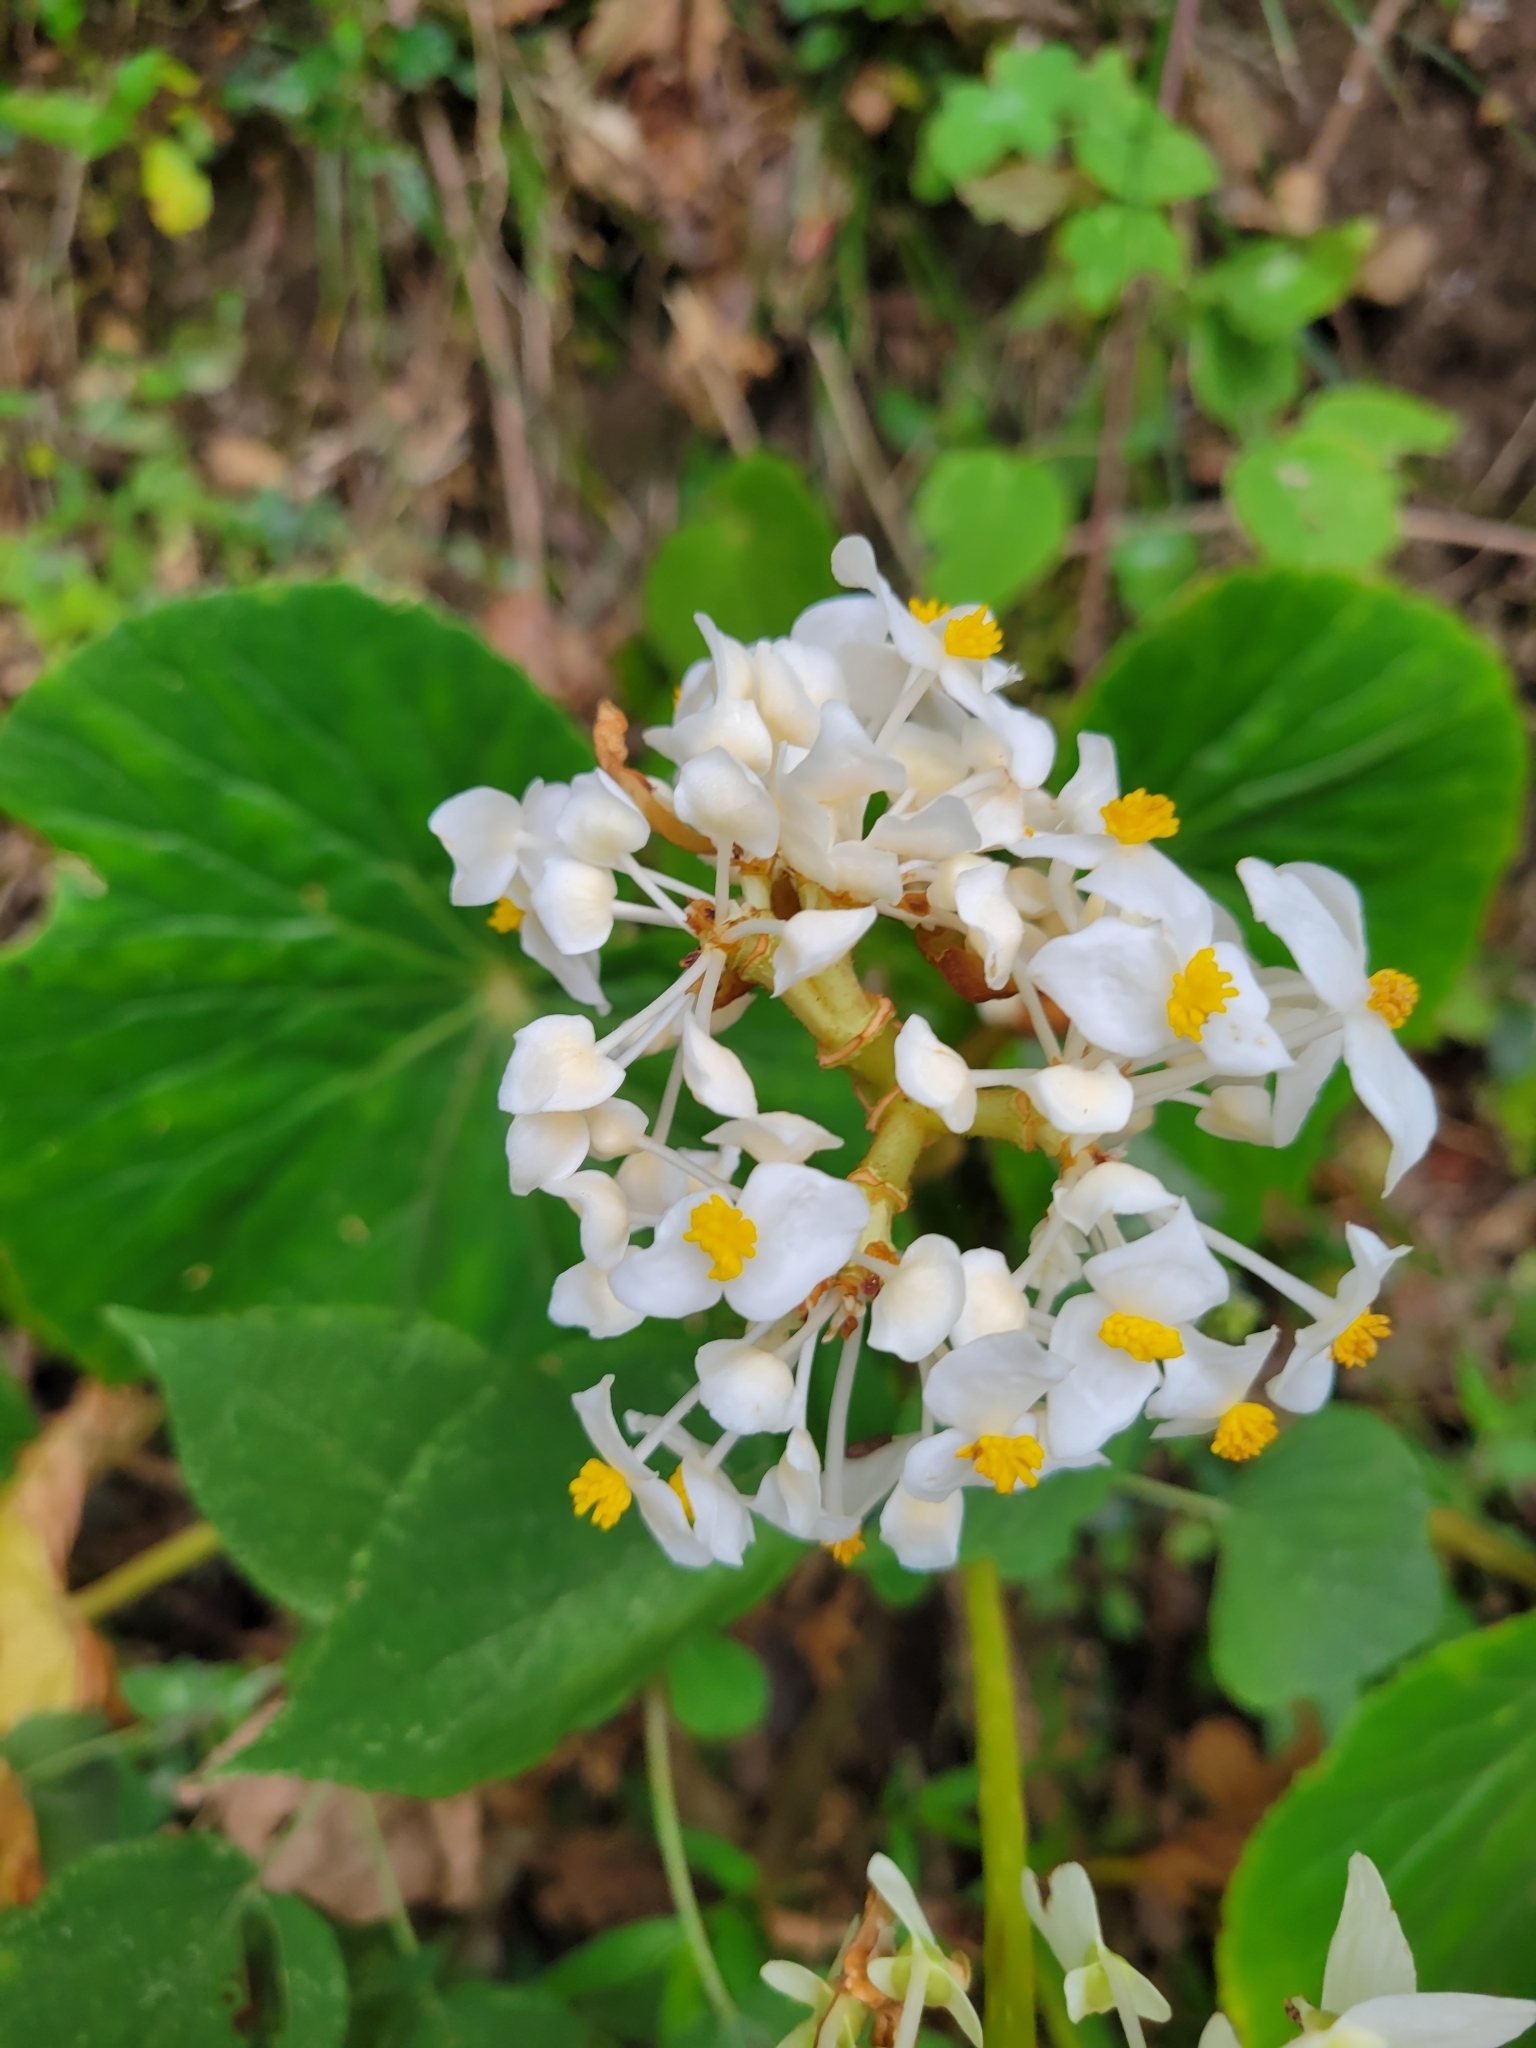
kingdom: Plantae
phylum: Tracheophyta
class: Magnoliopsida
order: Cucurbitales
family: Begoniaceae
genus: Begonia
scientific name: Begonia involucrata
